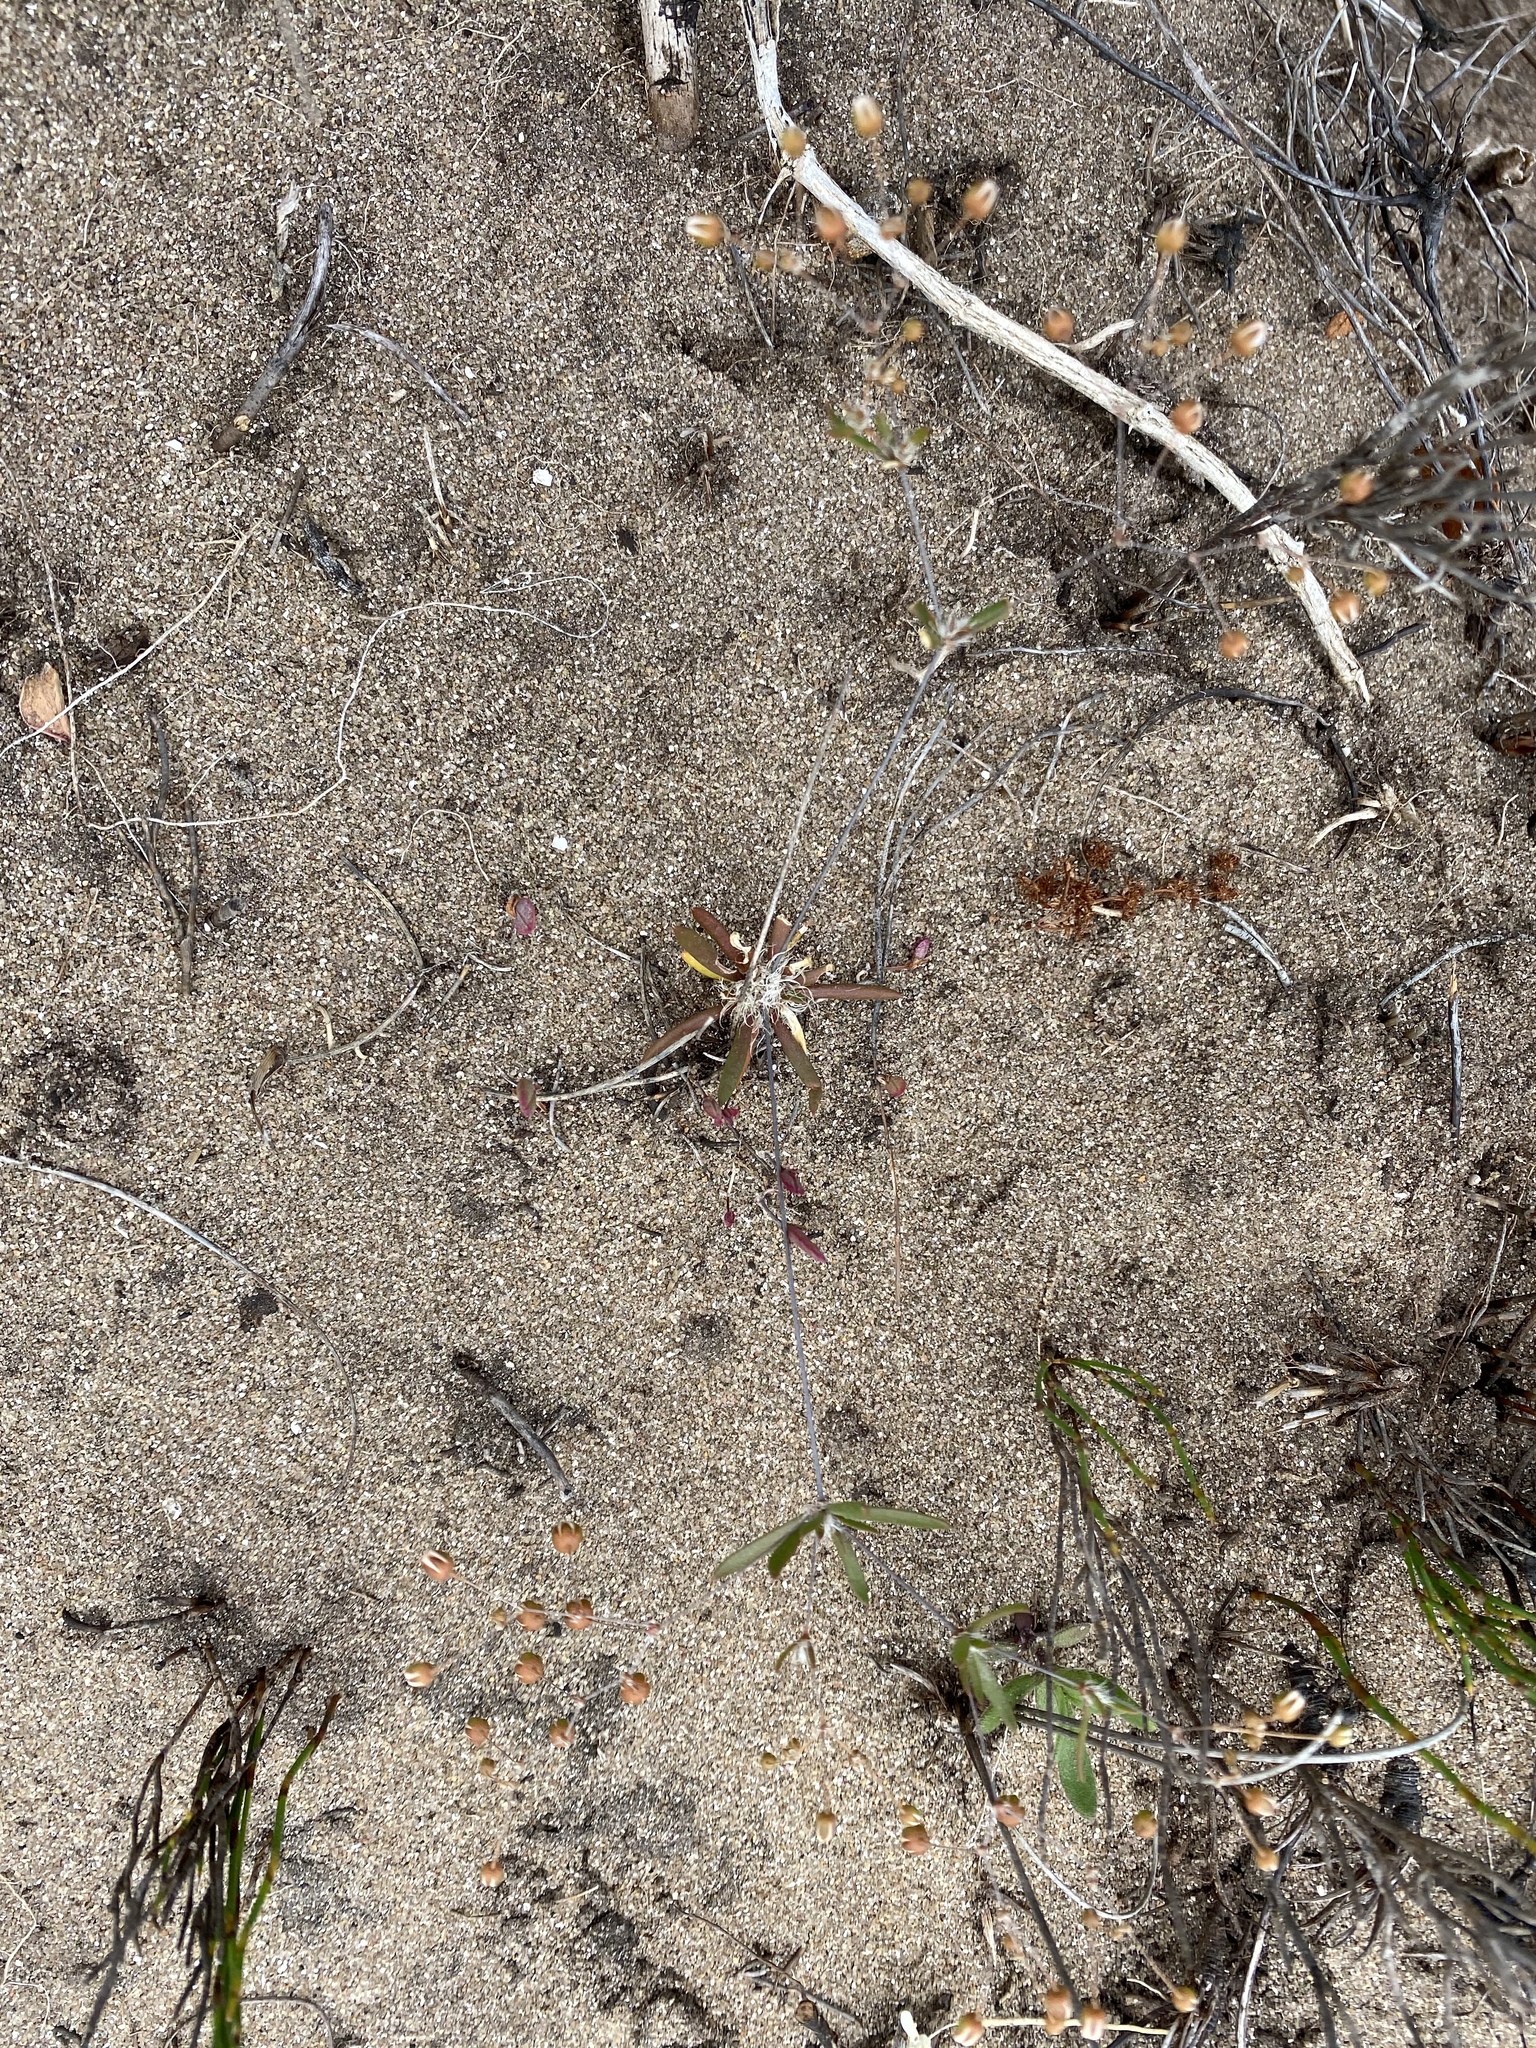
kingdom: Plantae
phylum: Tracheophyta
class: Magnoliopsida
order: Caryophyllales
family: Molluginaceae
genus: Pharnaceum
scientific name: Pharnaceum cordifolium
